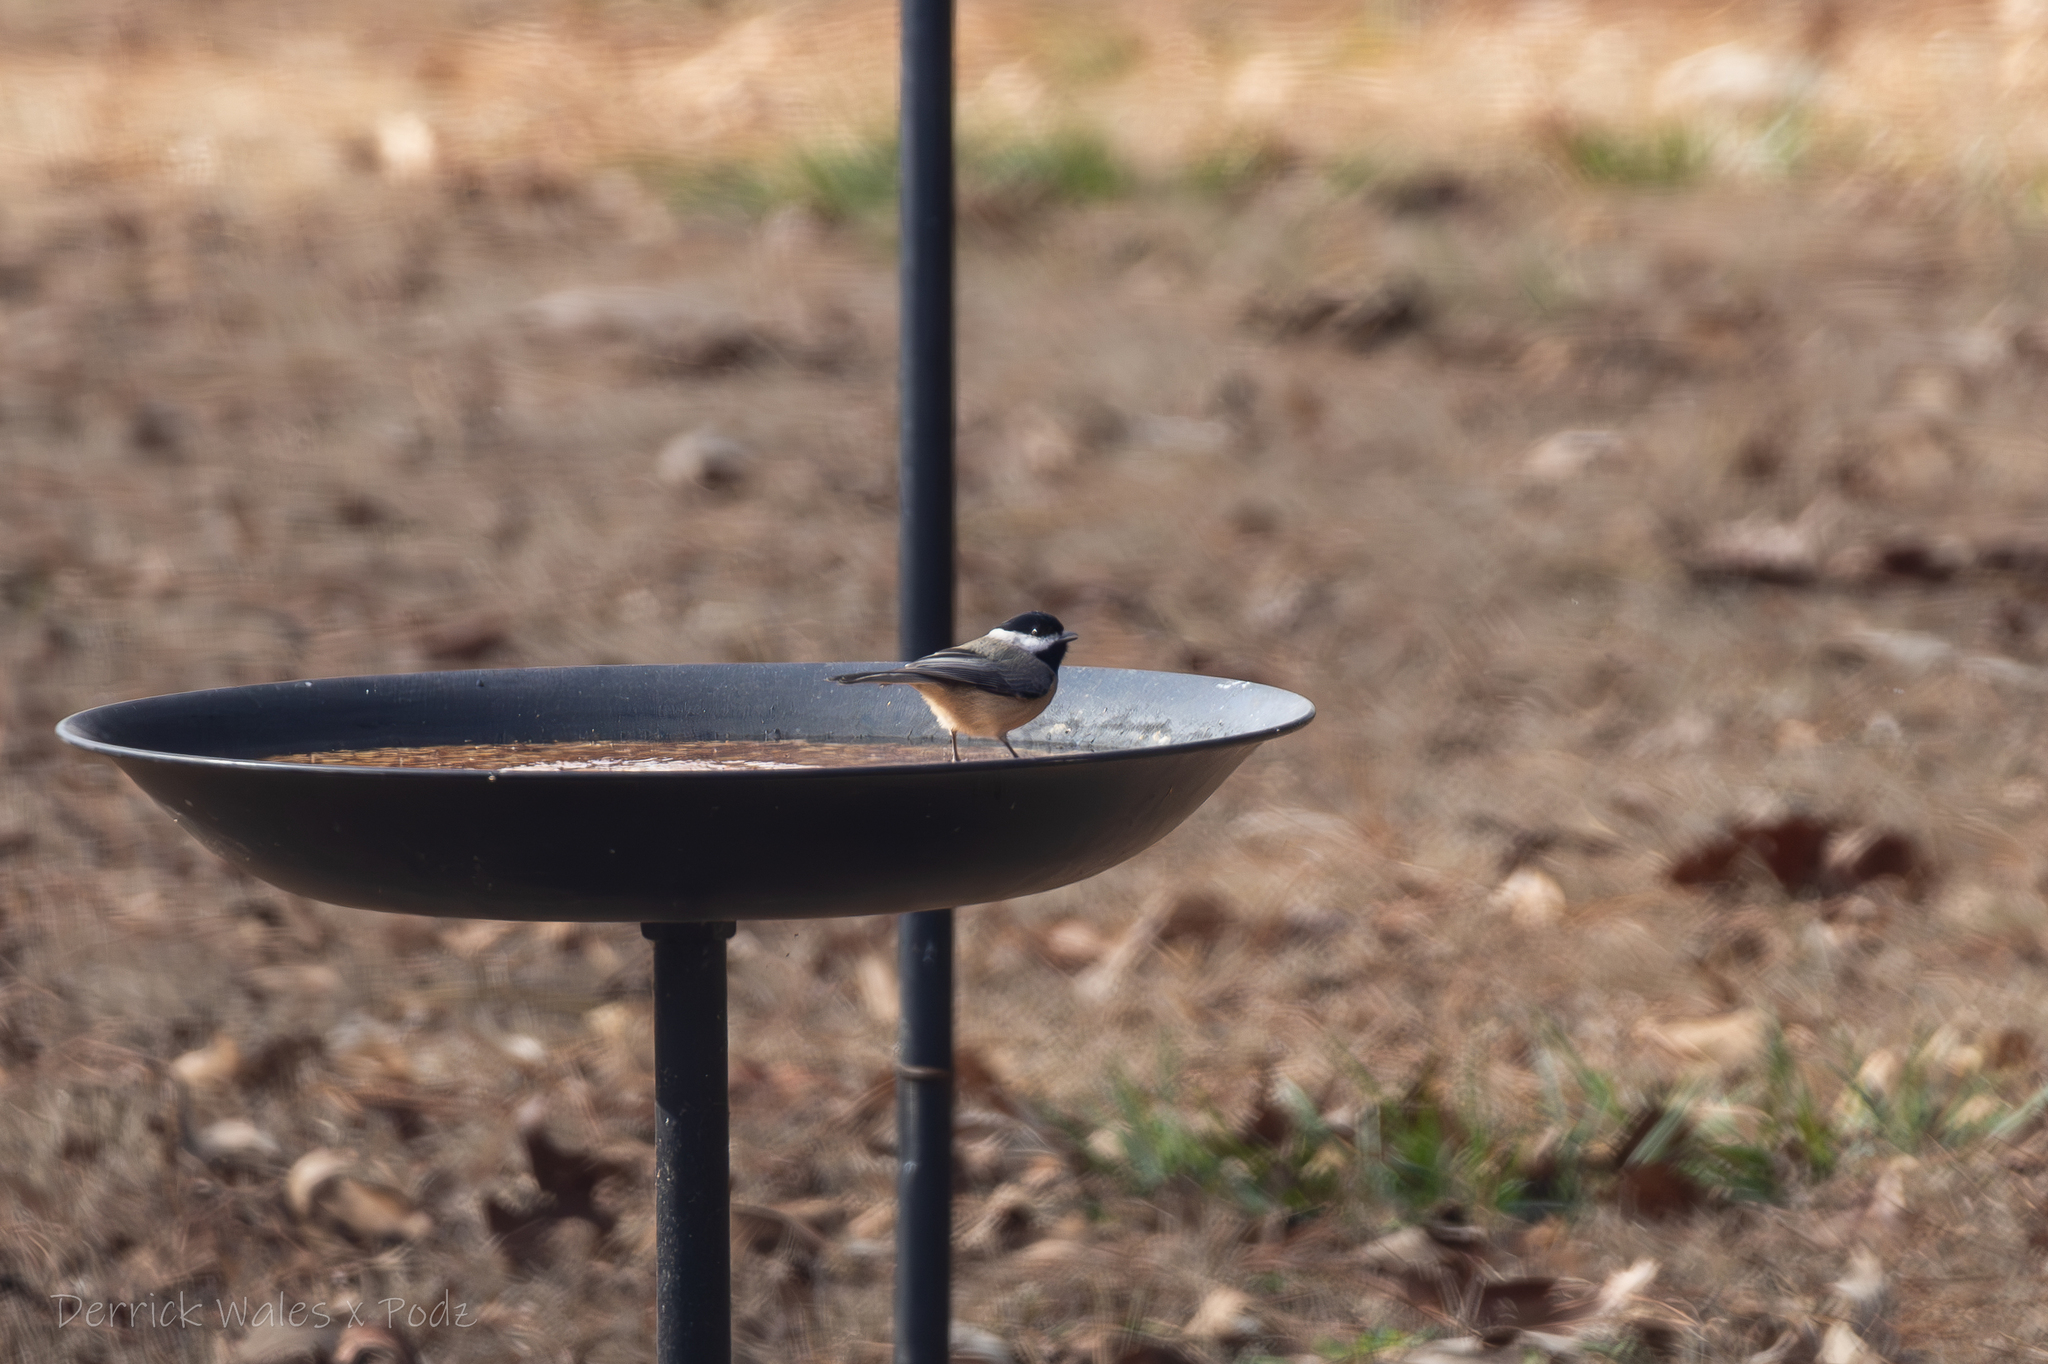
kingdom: Animalia
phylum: Chordata
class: Aves
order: Passeriformes
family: Paridae
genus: Poecile
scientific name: Poecile carolinensis
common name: Carolina chickadee
